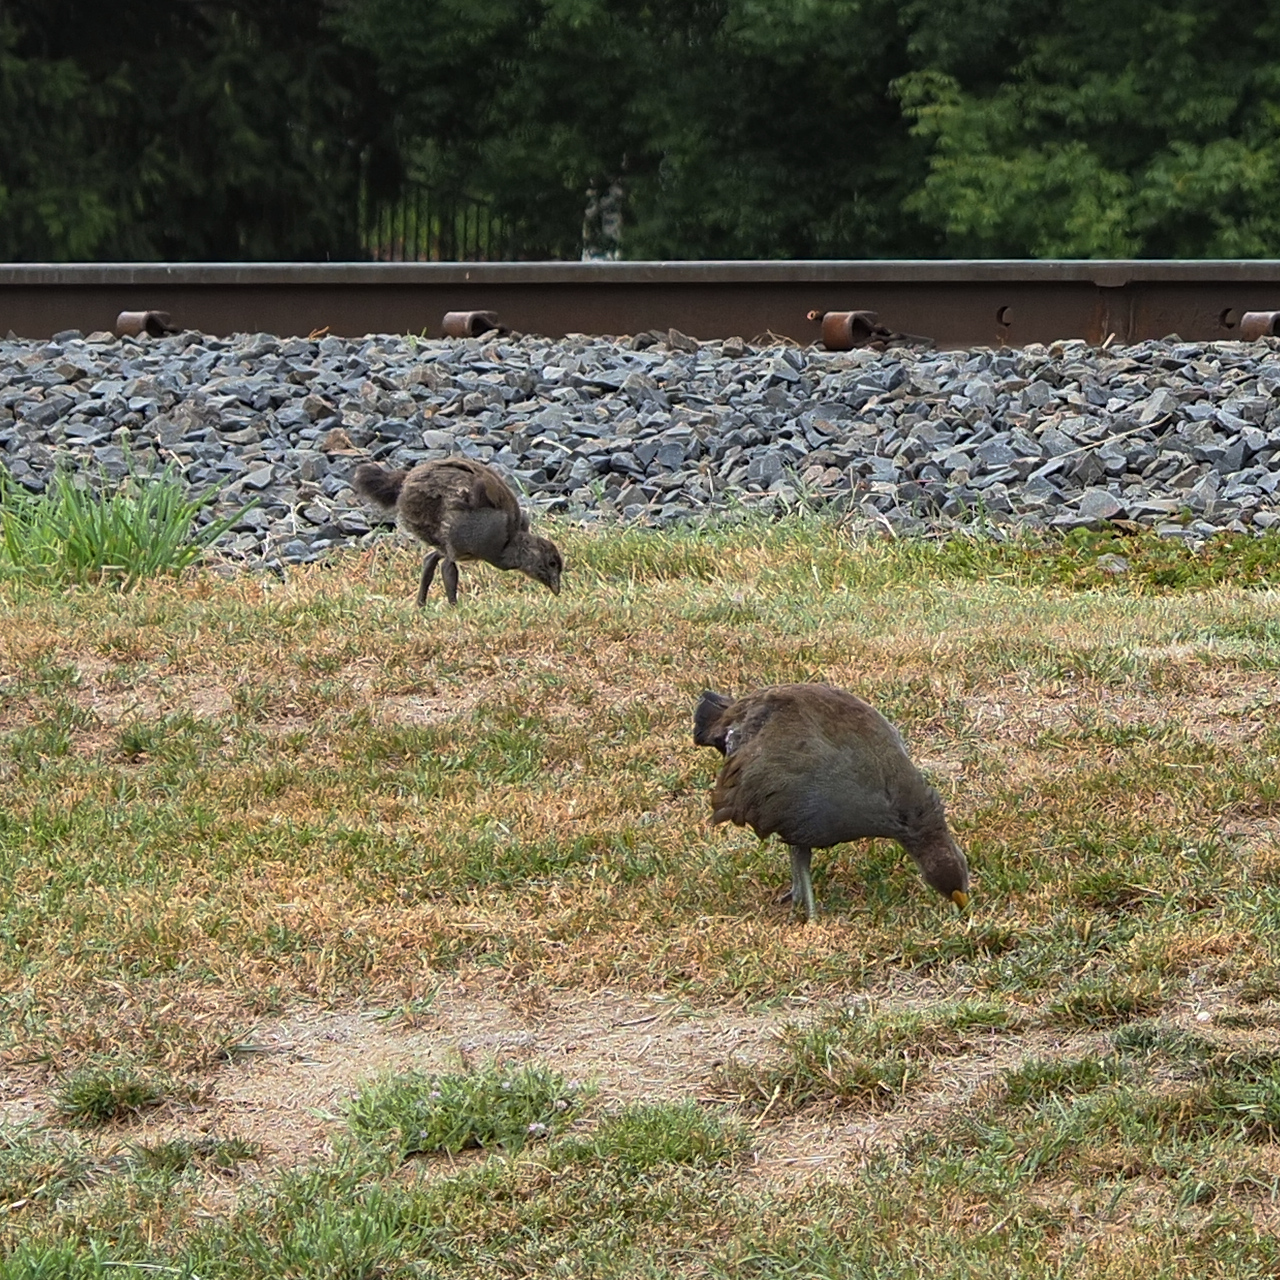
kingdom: Animalia
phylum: Chordata
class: Aves
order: Gruiformes
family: Rallidae
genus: Gallinula
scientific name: Gallinula mortierii
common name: Tasmanian nativehen
